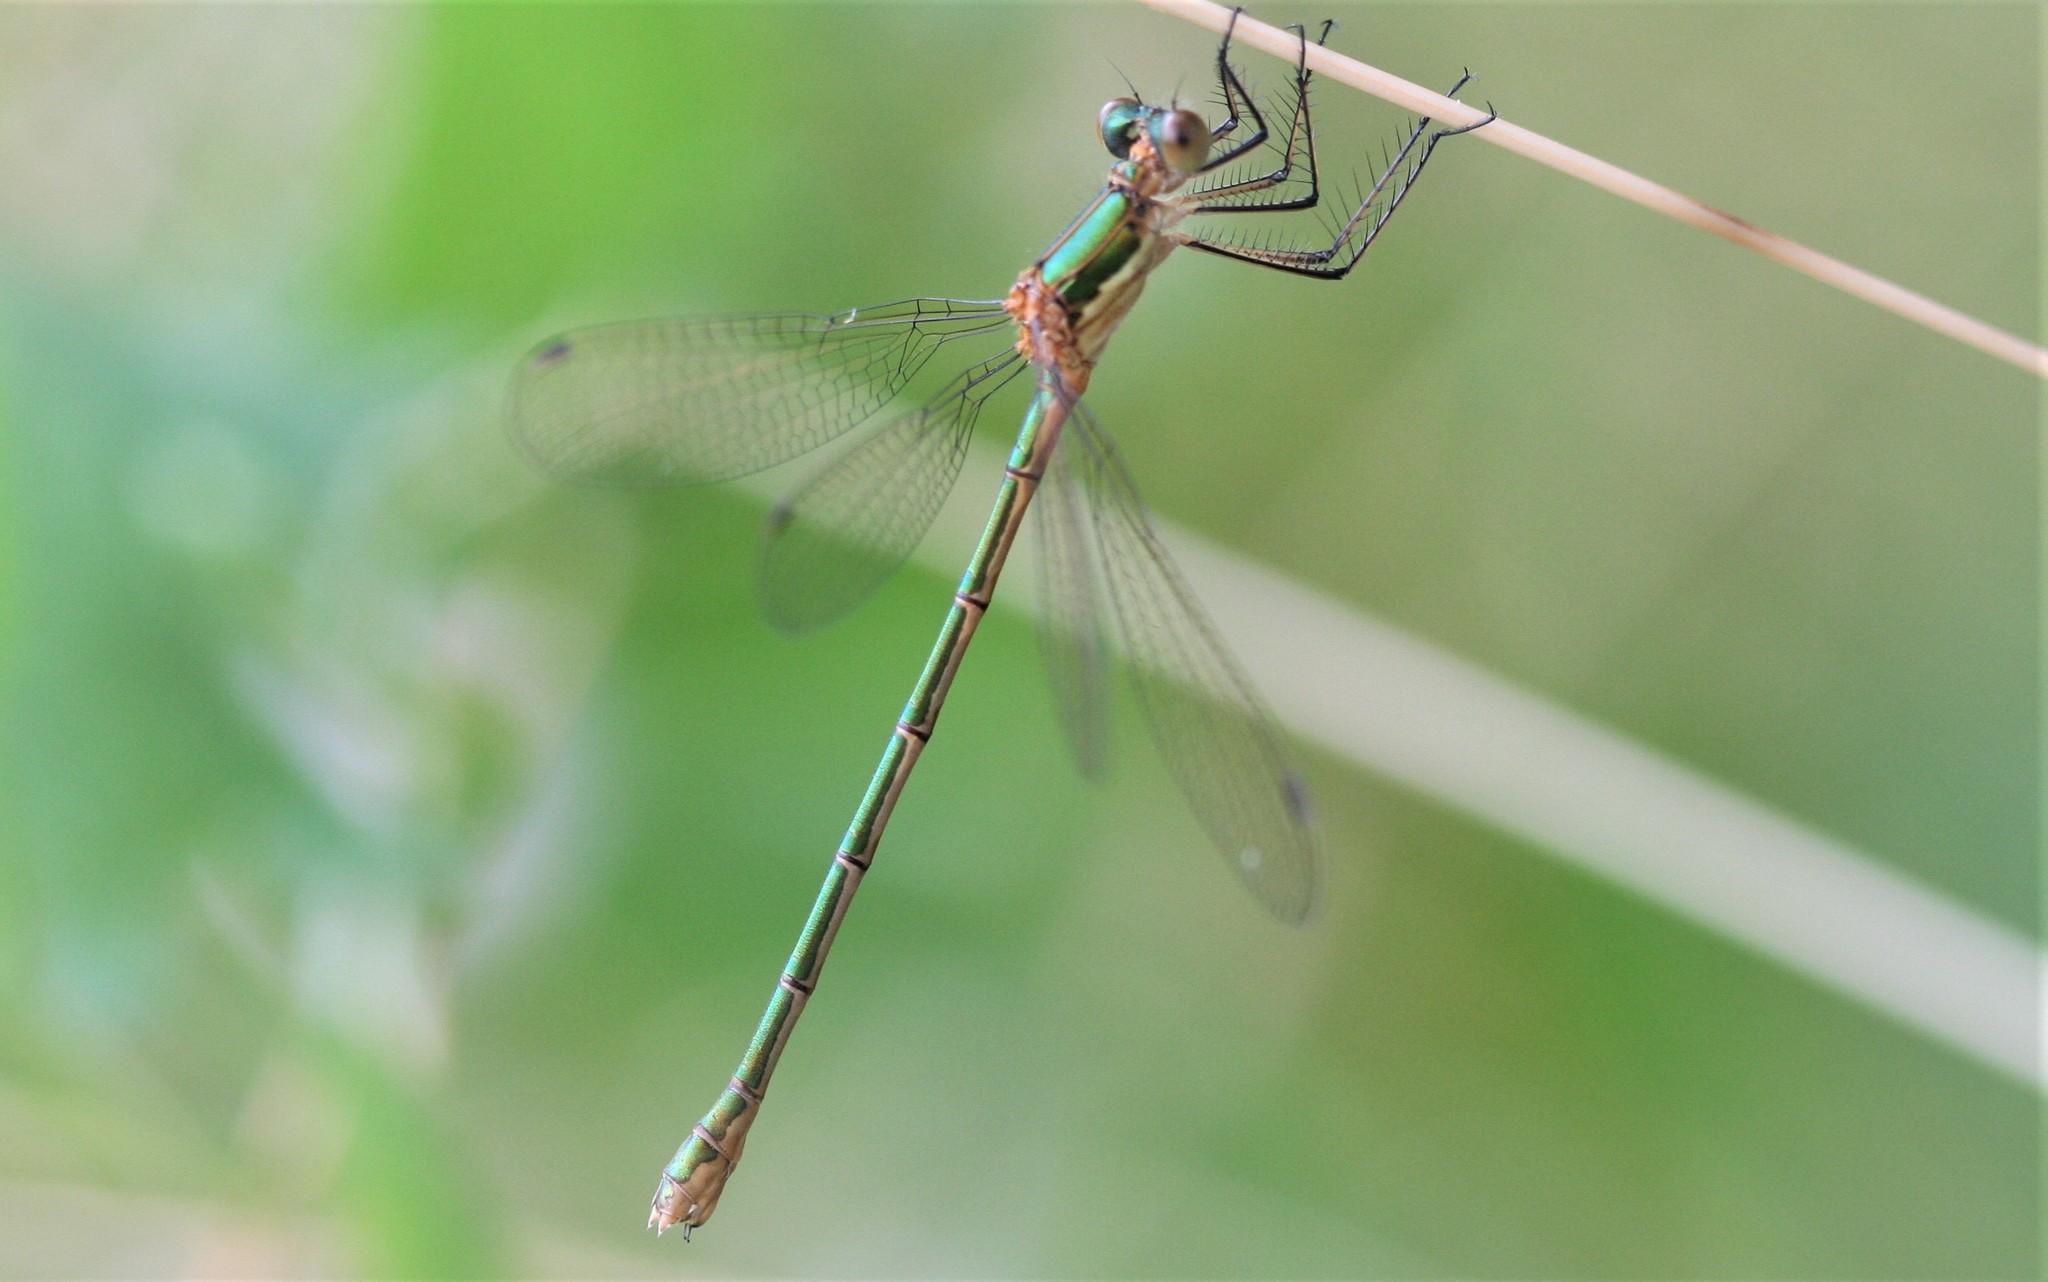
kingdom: Animalia
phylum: Arthropoda
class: Insecta
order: Odonata
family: Lestidae
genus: Lestes
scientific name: Lestes sponsa
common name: Common spreadwing
